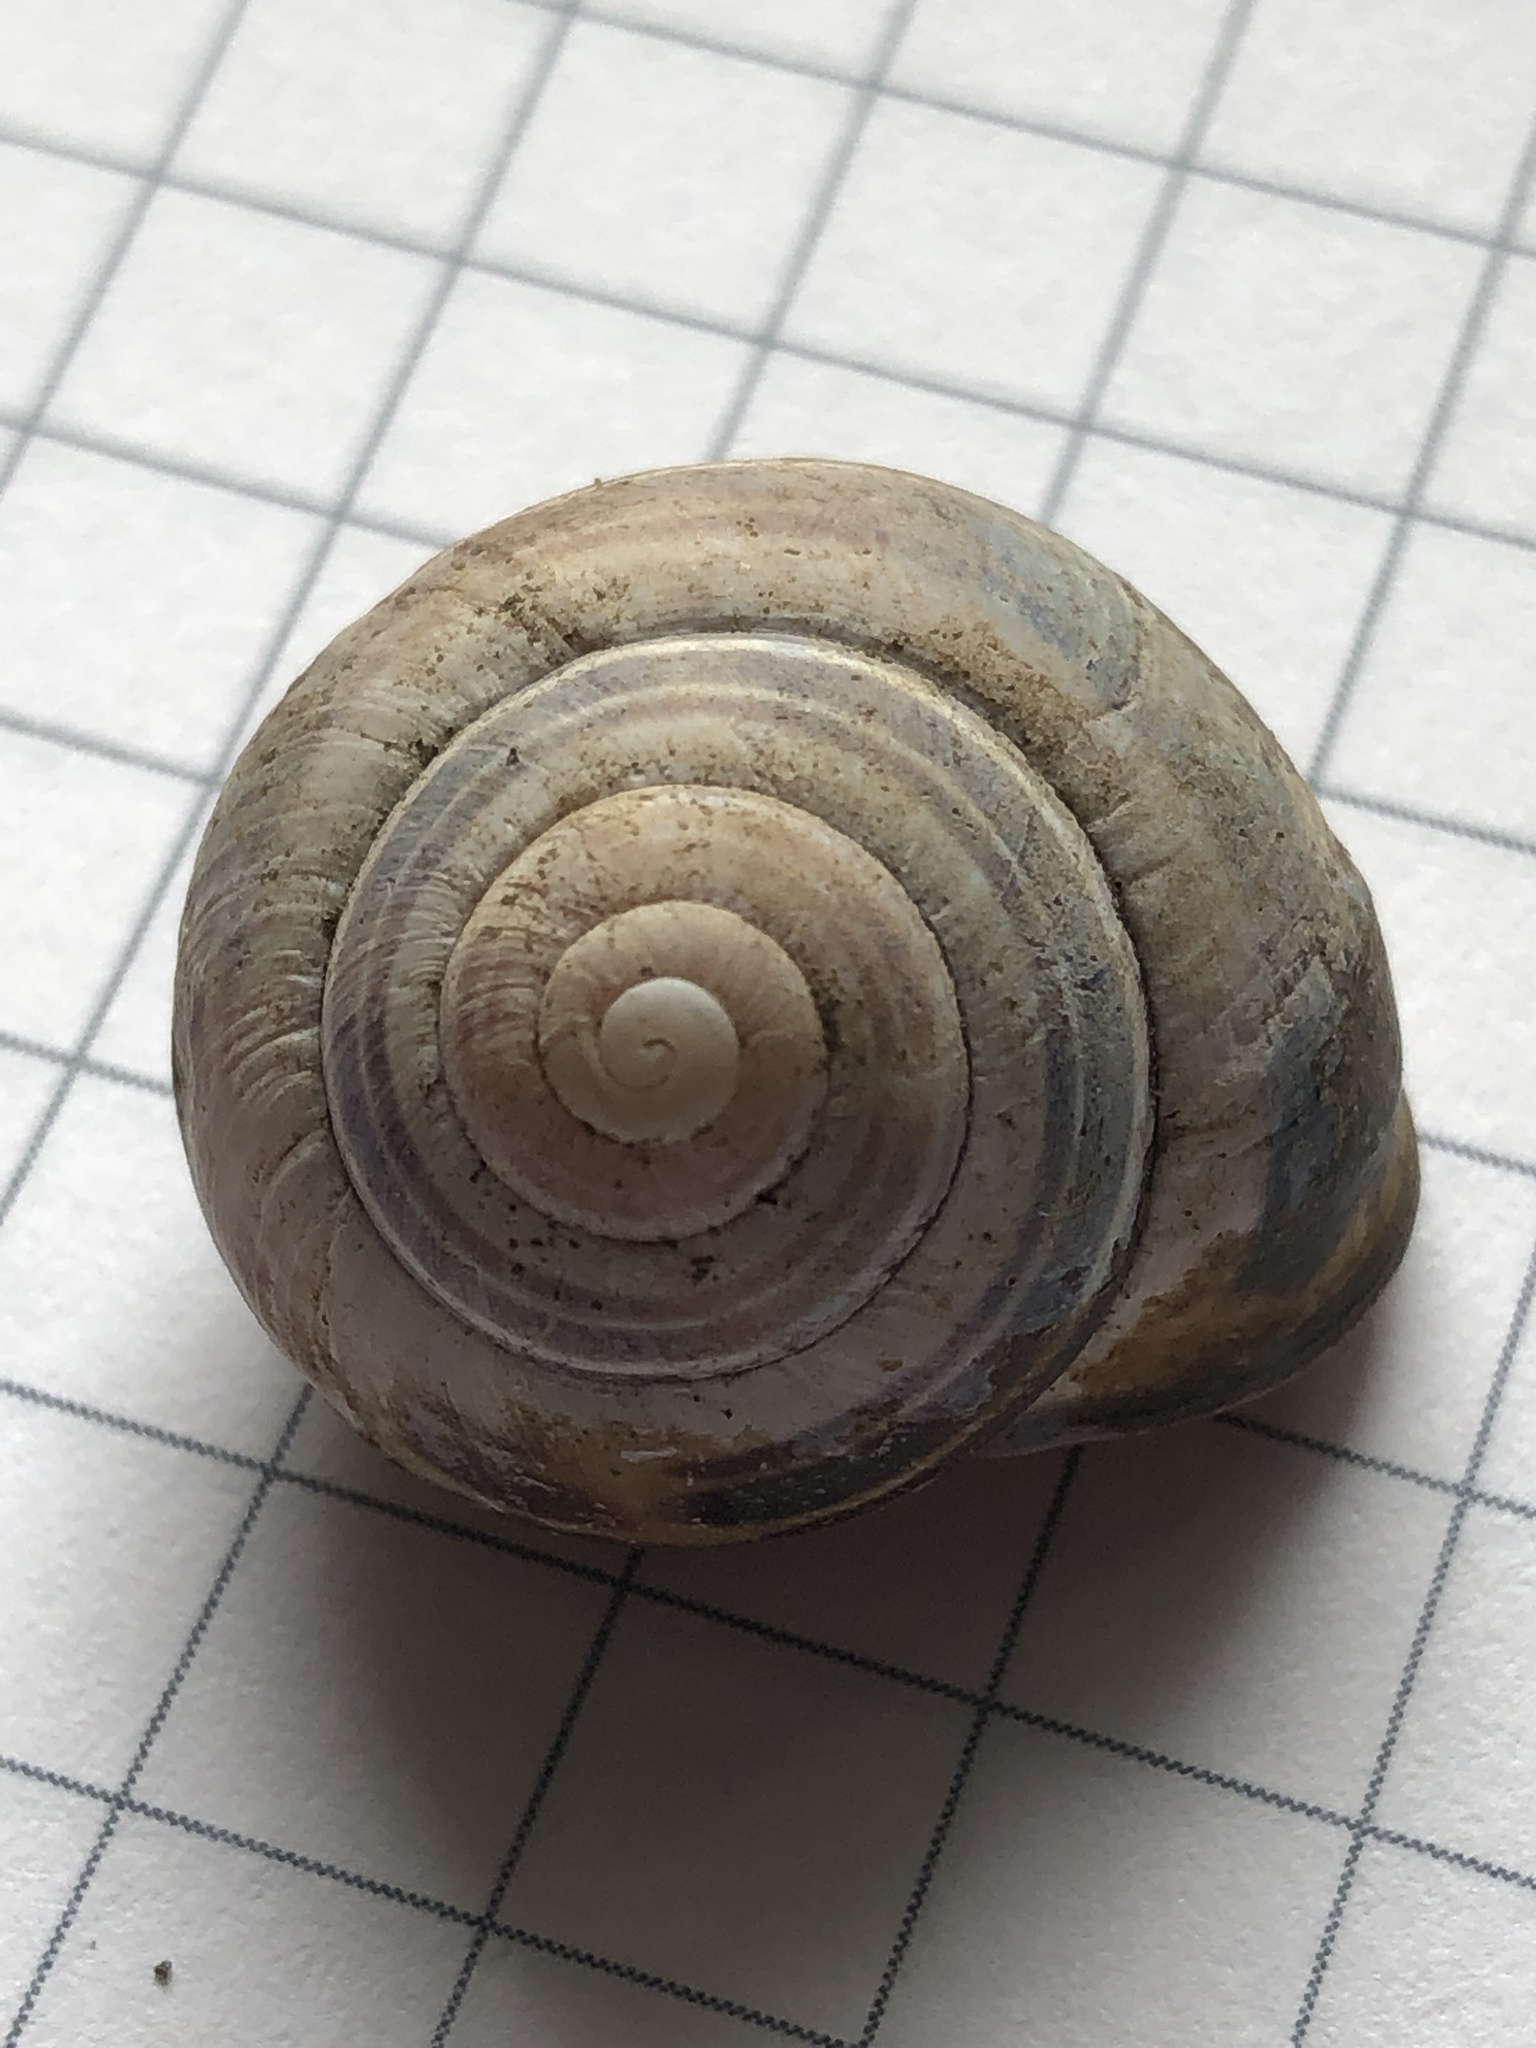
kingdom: Animalia
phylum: Mollusca
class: Gastropoda
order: Stylommatophora
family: Helicidae
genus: Cepaea
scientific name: Cepaea nemoralis
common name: Grovesnail
